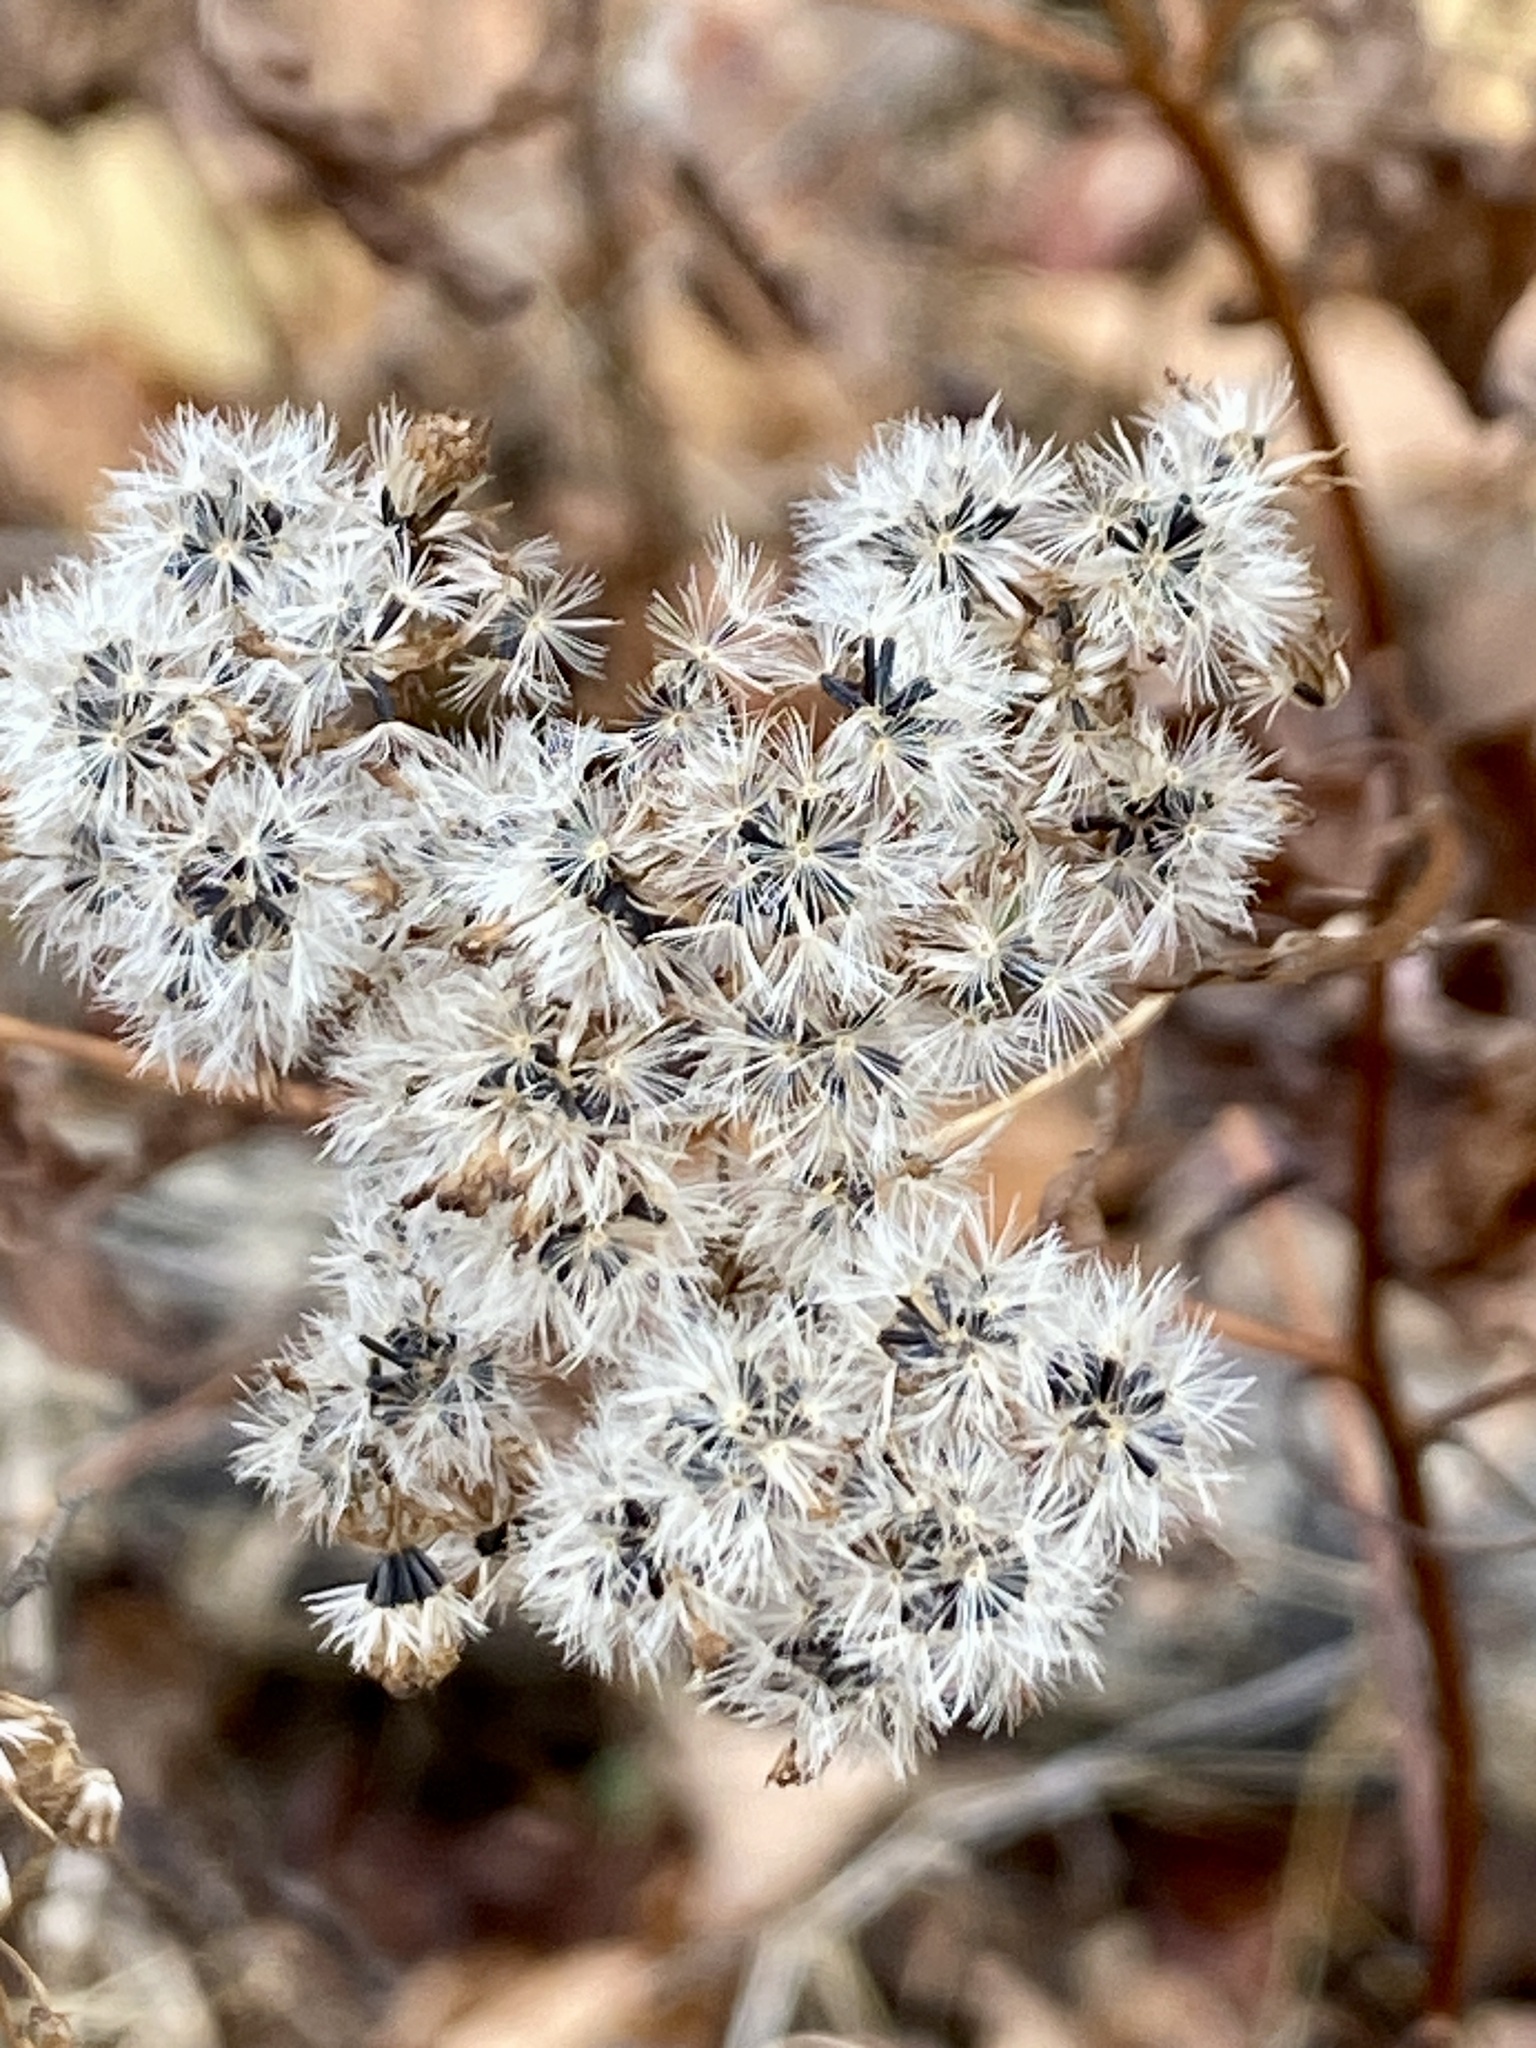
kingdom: Plantae
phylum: Tracheophyta
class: Magnoliopsida
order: Asterales
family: Asteraceae
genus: Ageratina
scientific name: Ageratina altissima
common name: White snakeroot
